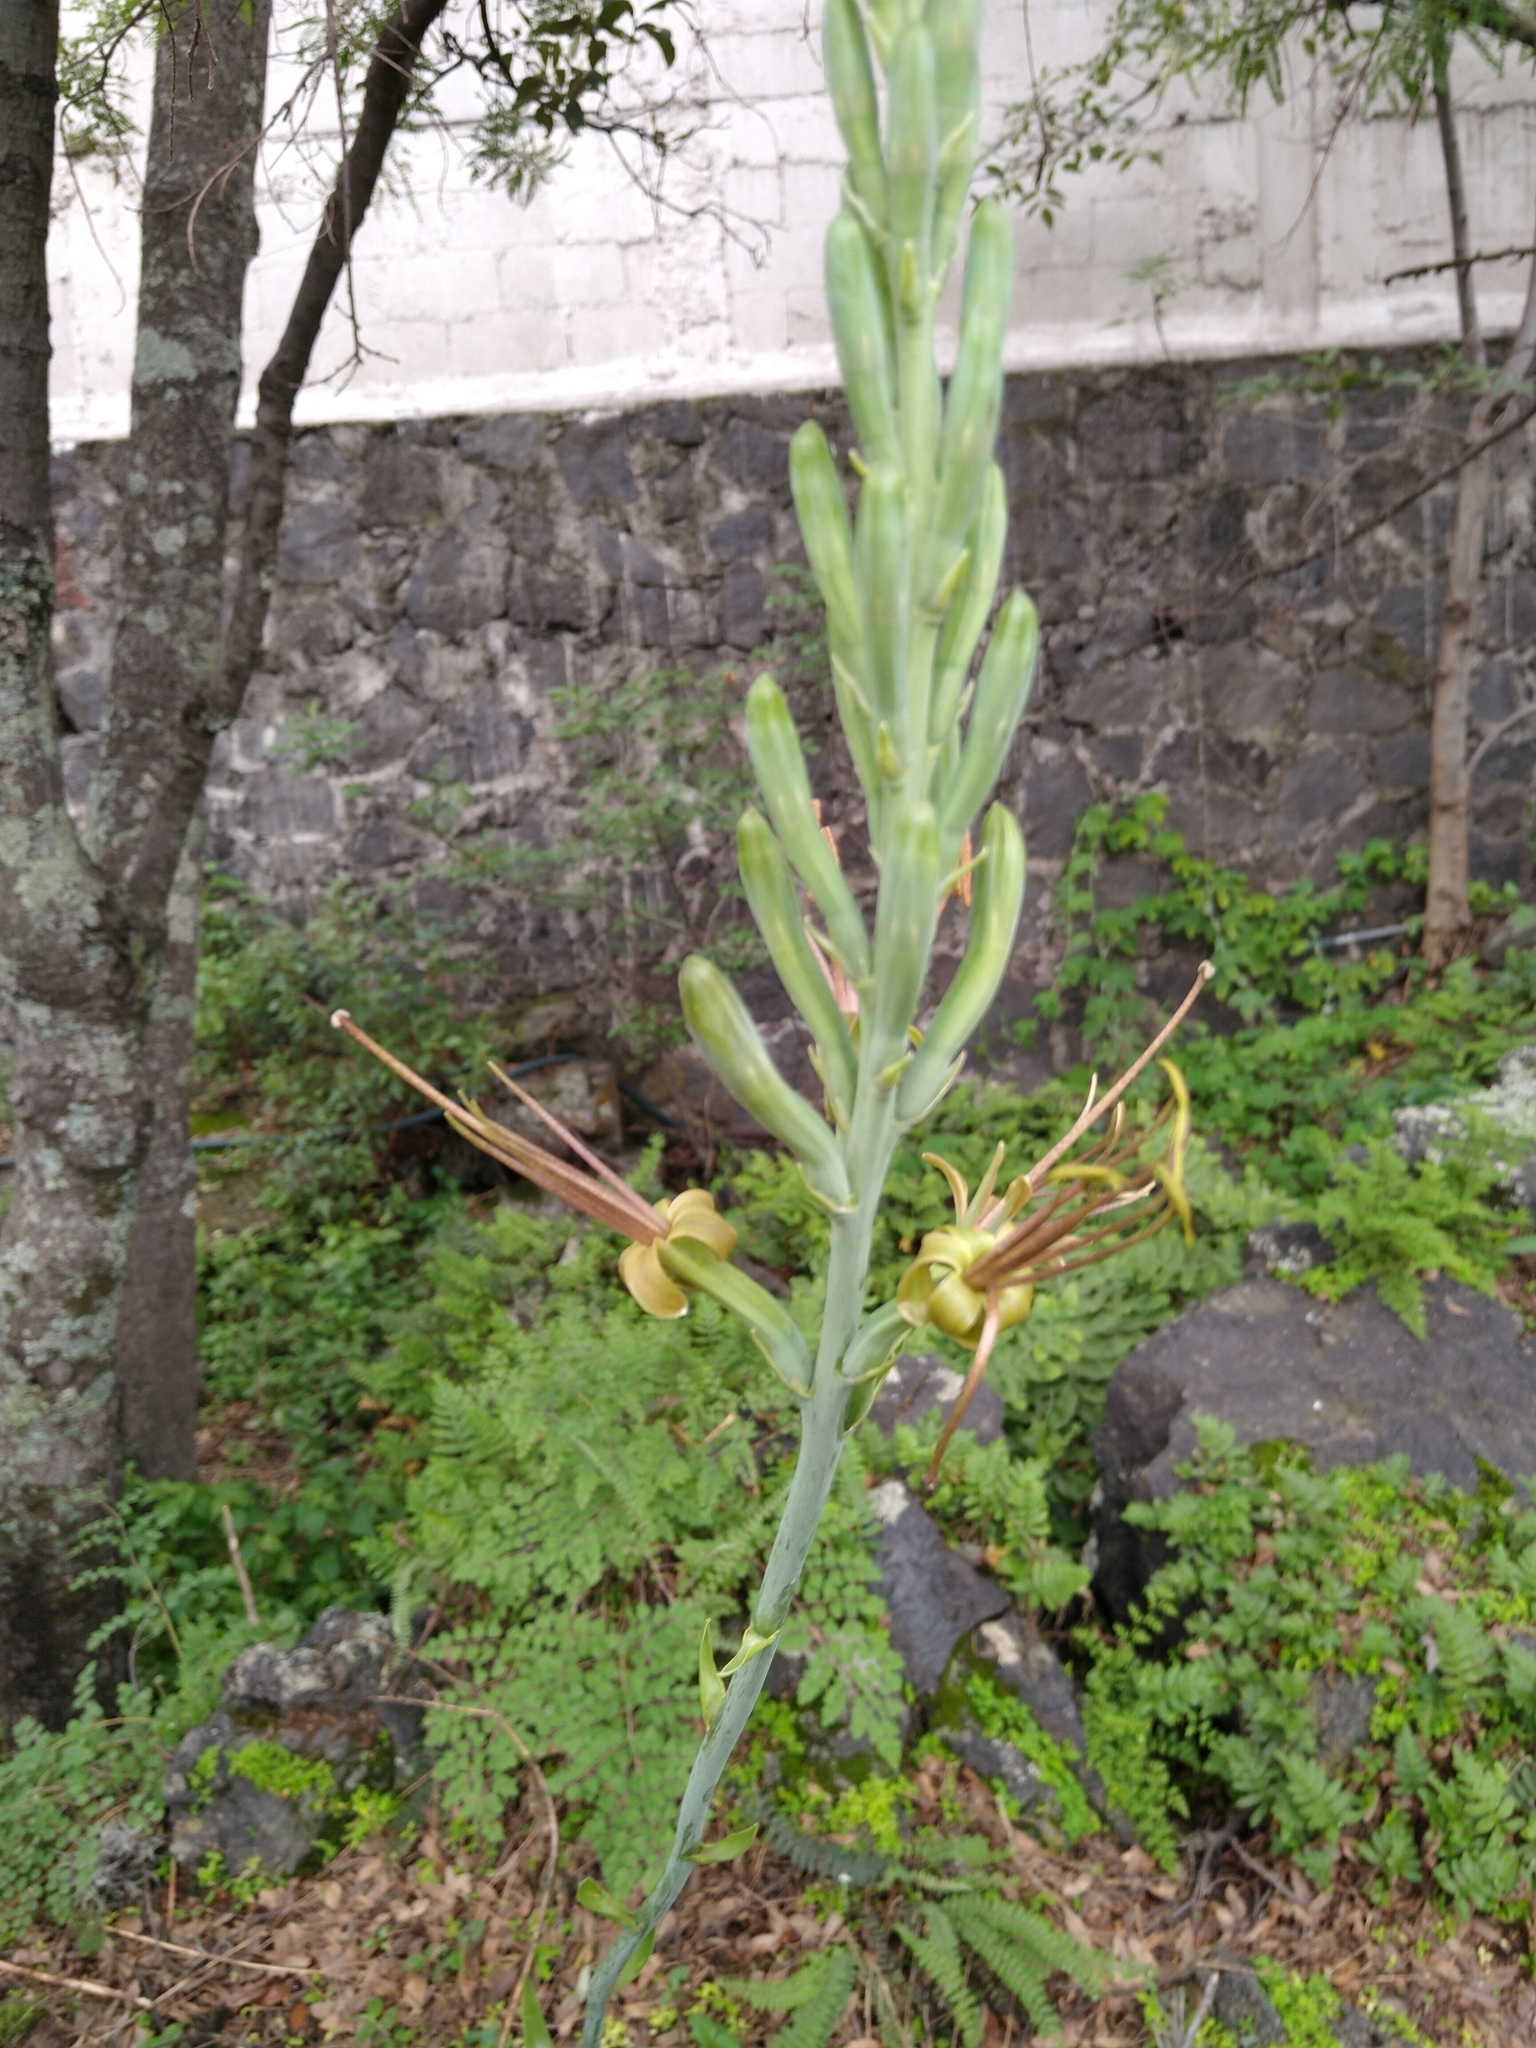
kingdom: Plantae
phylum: Tracheophyta
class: Liliopsida
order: Asparagales
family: Asparagaceae
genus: Agave
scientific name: Agave debilis
